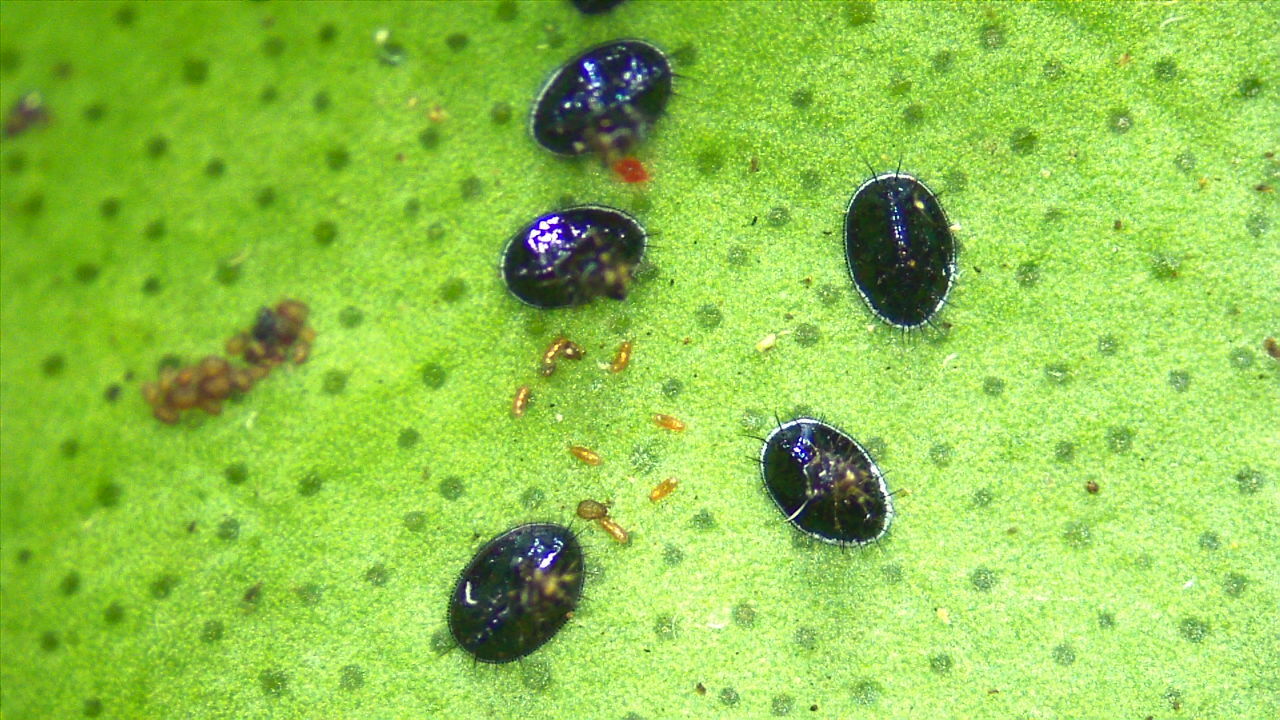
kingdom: Animalia
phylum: Arthropoda
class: Insecta
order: Hemiptera
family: Aleyrodidae
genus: Aleurocanthus
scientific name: Aleurocanthus woglumi
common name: Citrus blackfly
